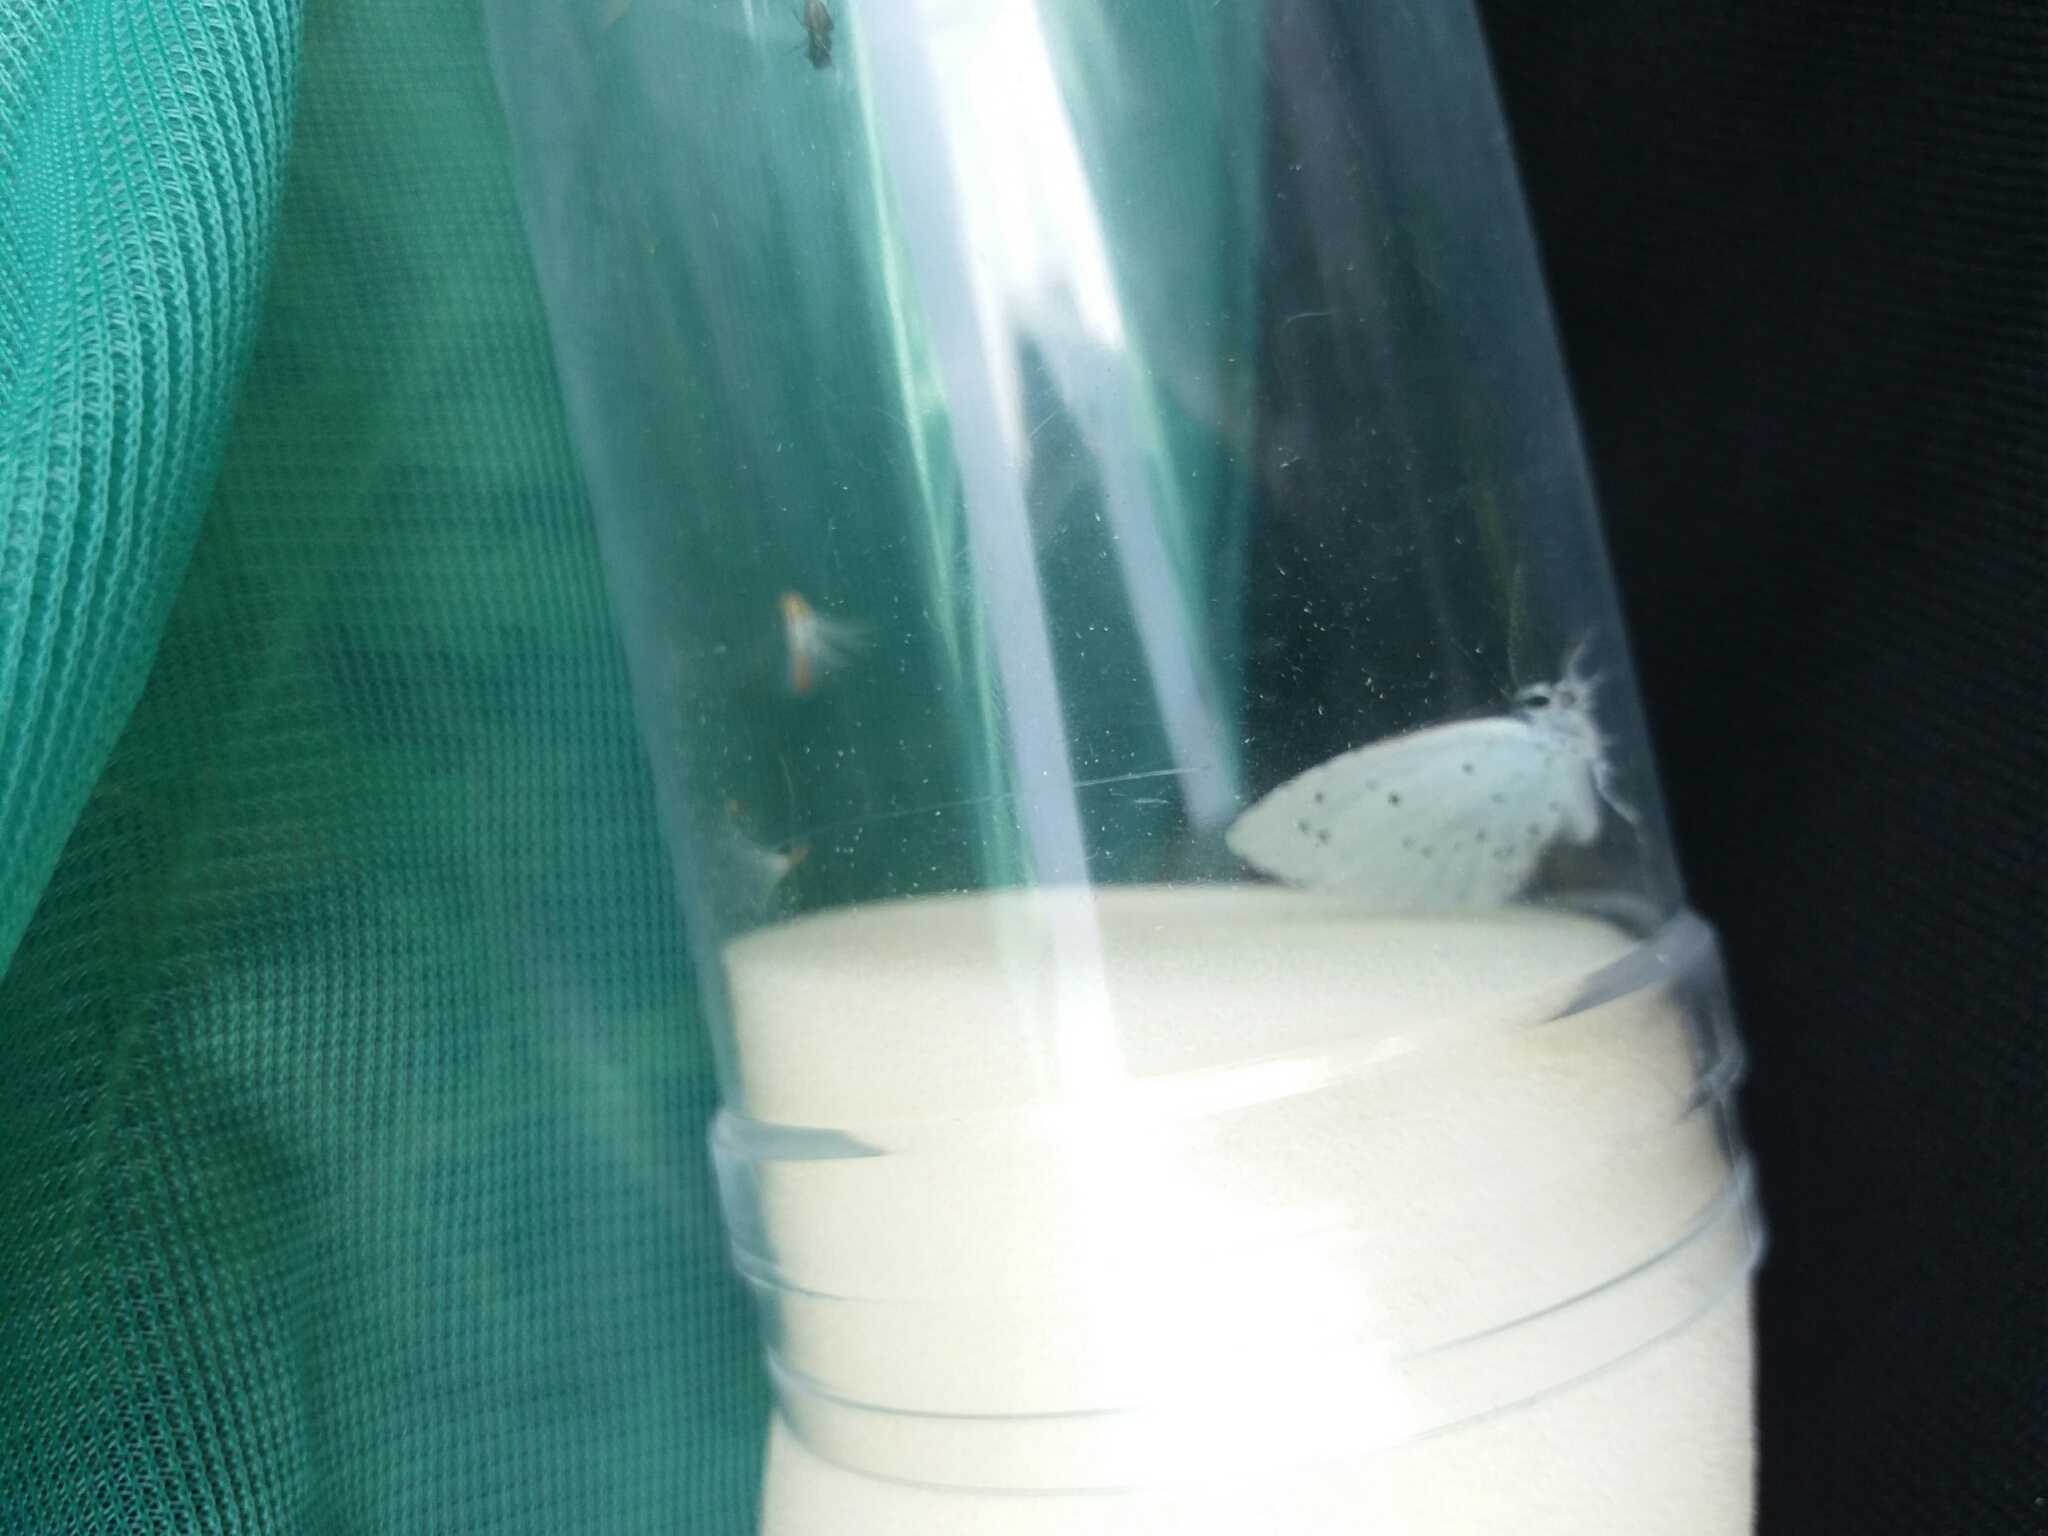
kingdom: Animalia
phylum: Arthropoda
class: Insecta
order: Lepidoptera
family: Lycaenidae
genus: Celastrina
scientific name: Celastrina argiolus
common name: Holly blue
